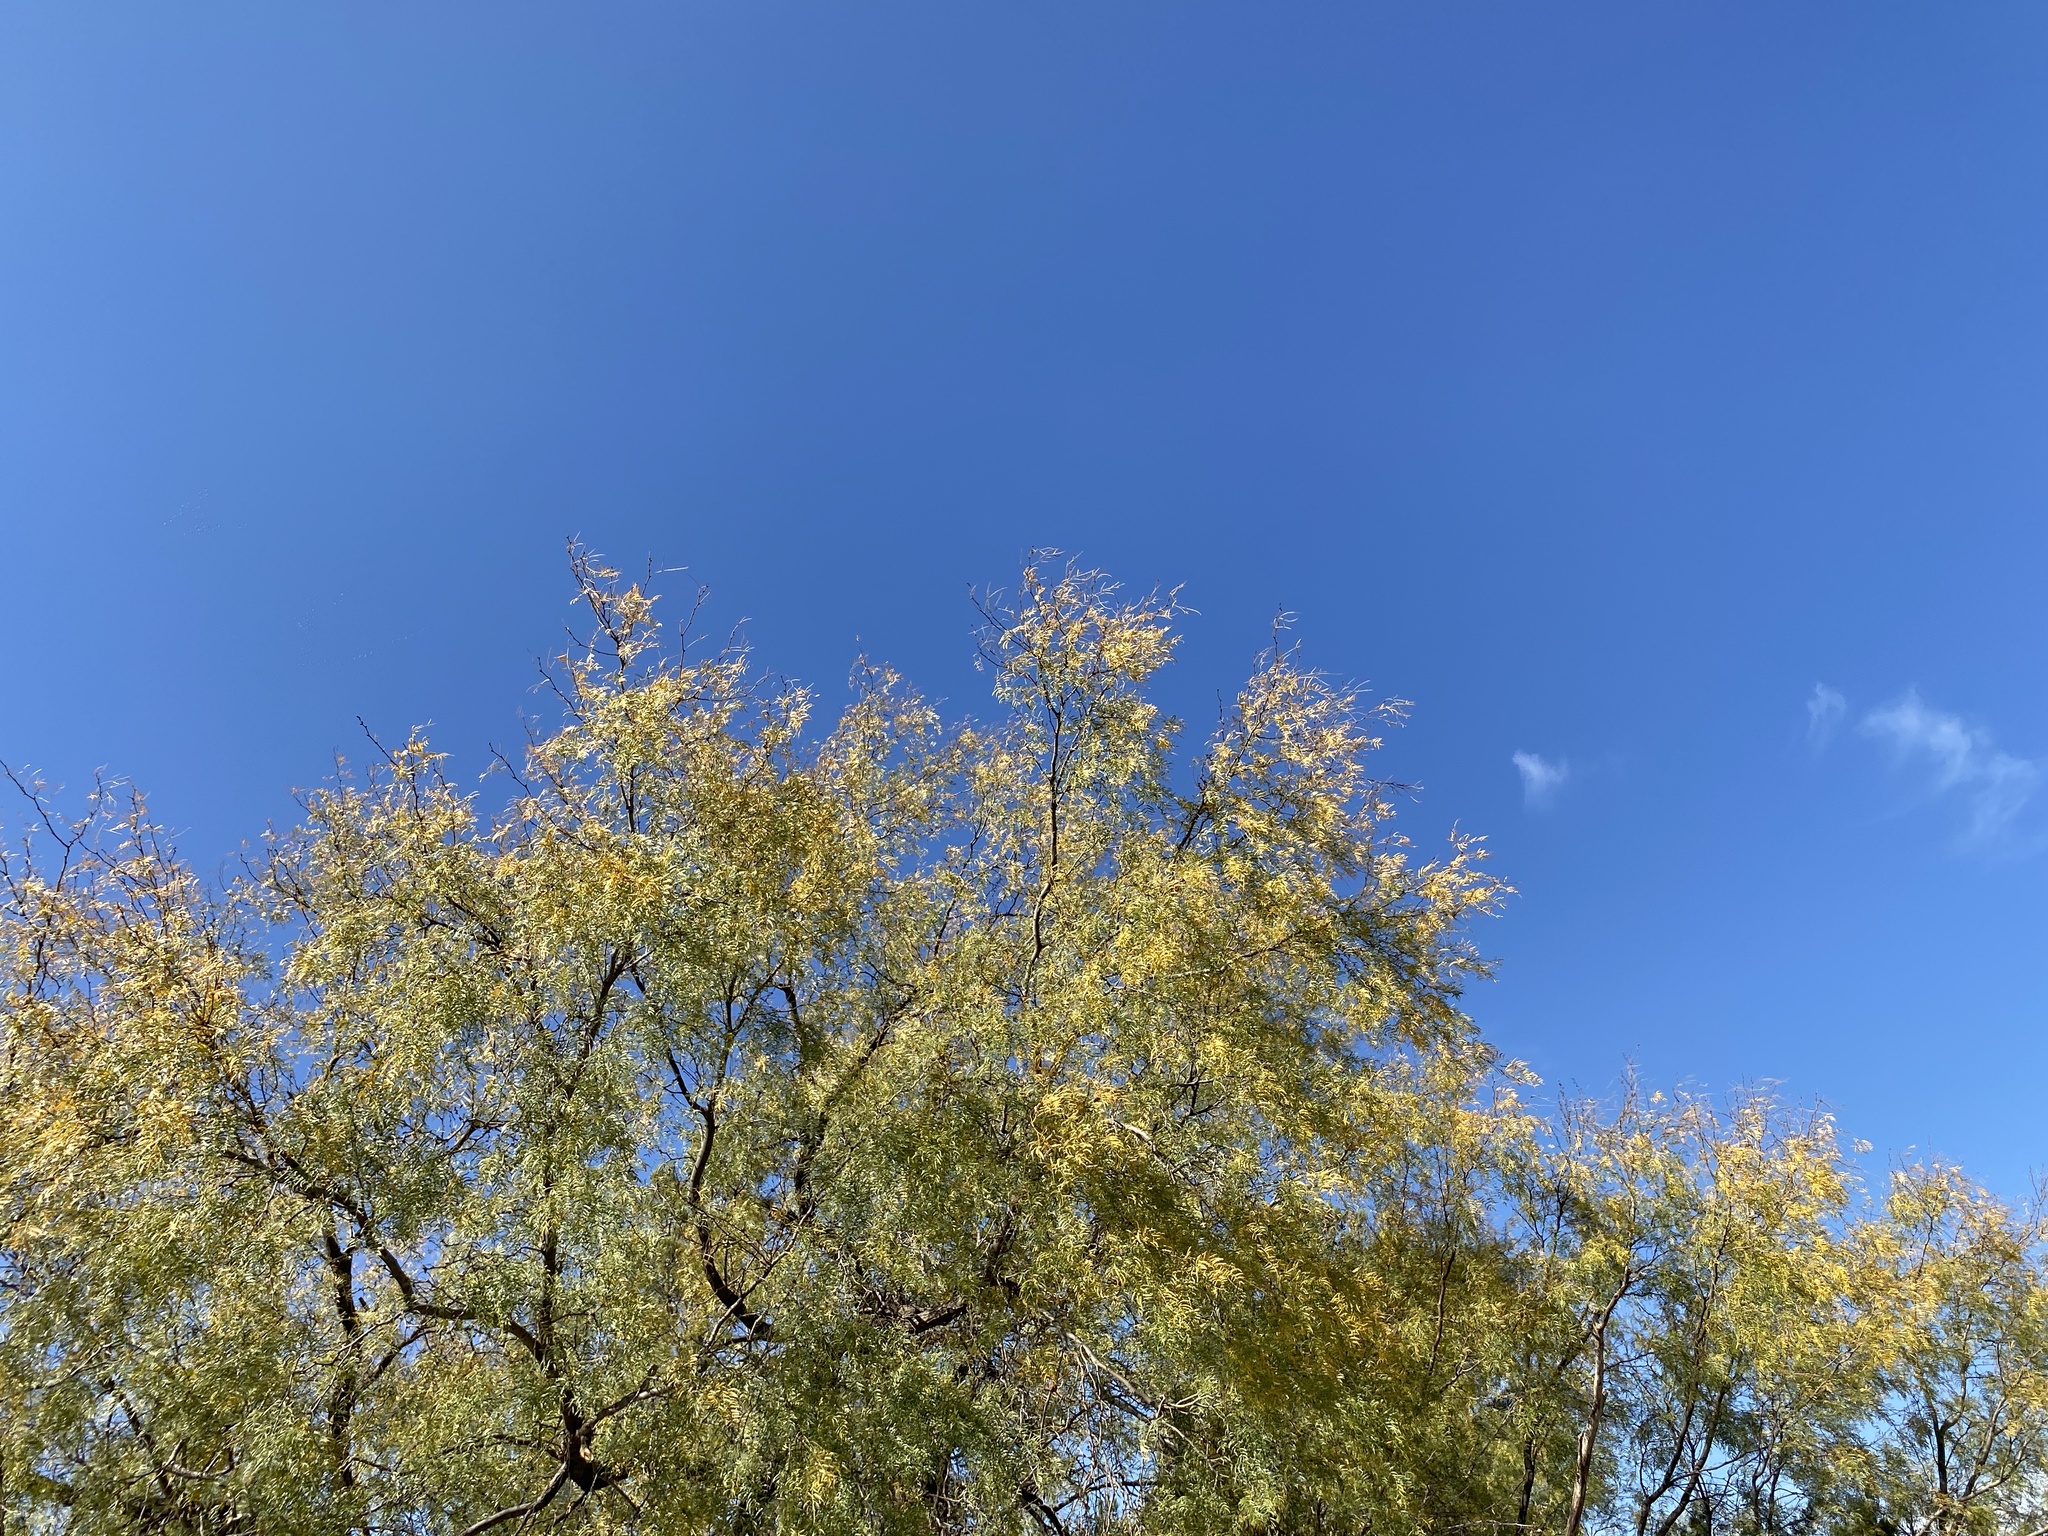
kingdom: Plantae
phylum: Tracheophyta
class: Magnoliopsida
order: Fabales
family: Fabaceae
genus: Prosopis
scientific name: Prosopis glandulosa
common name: Honey mesquite
